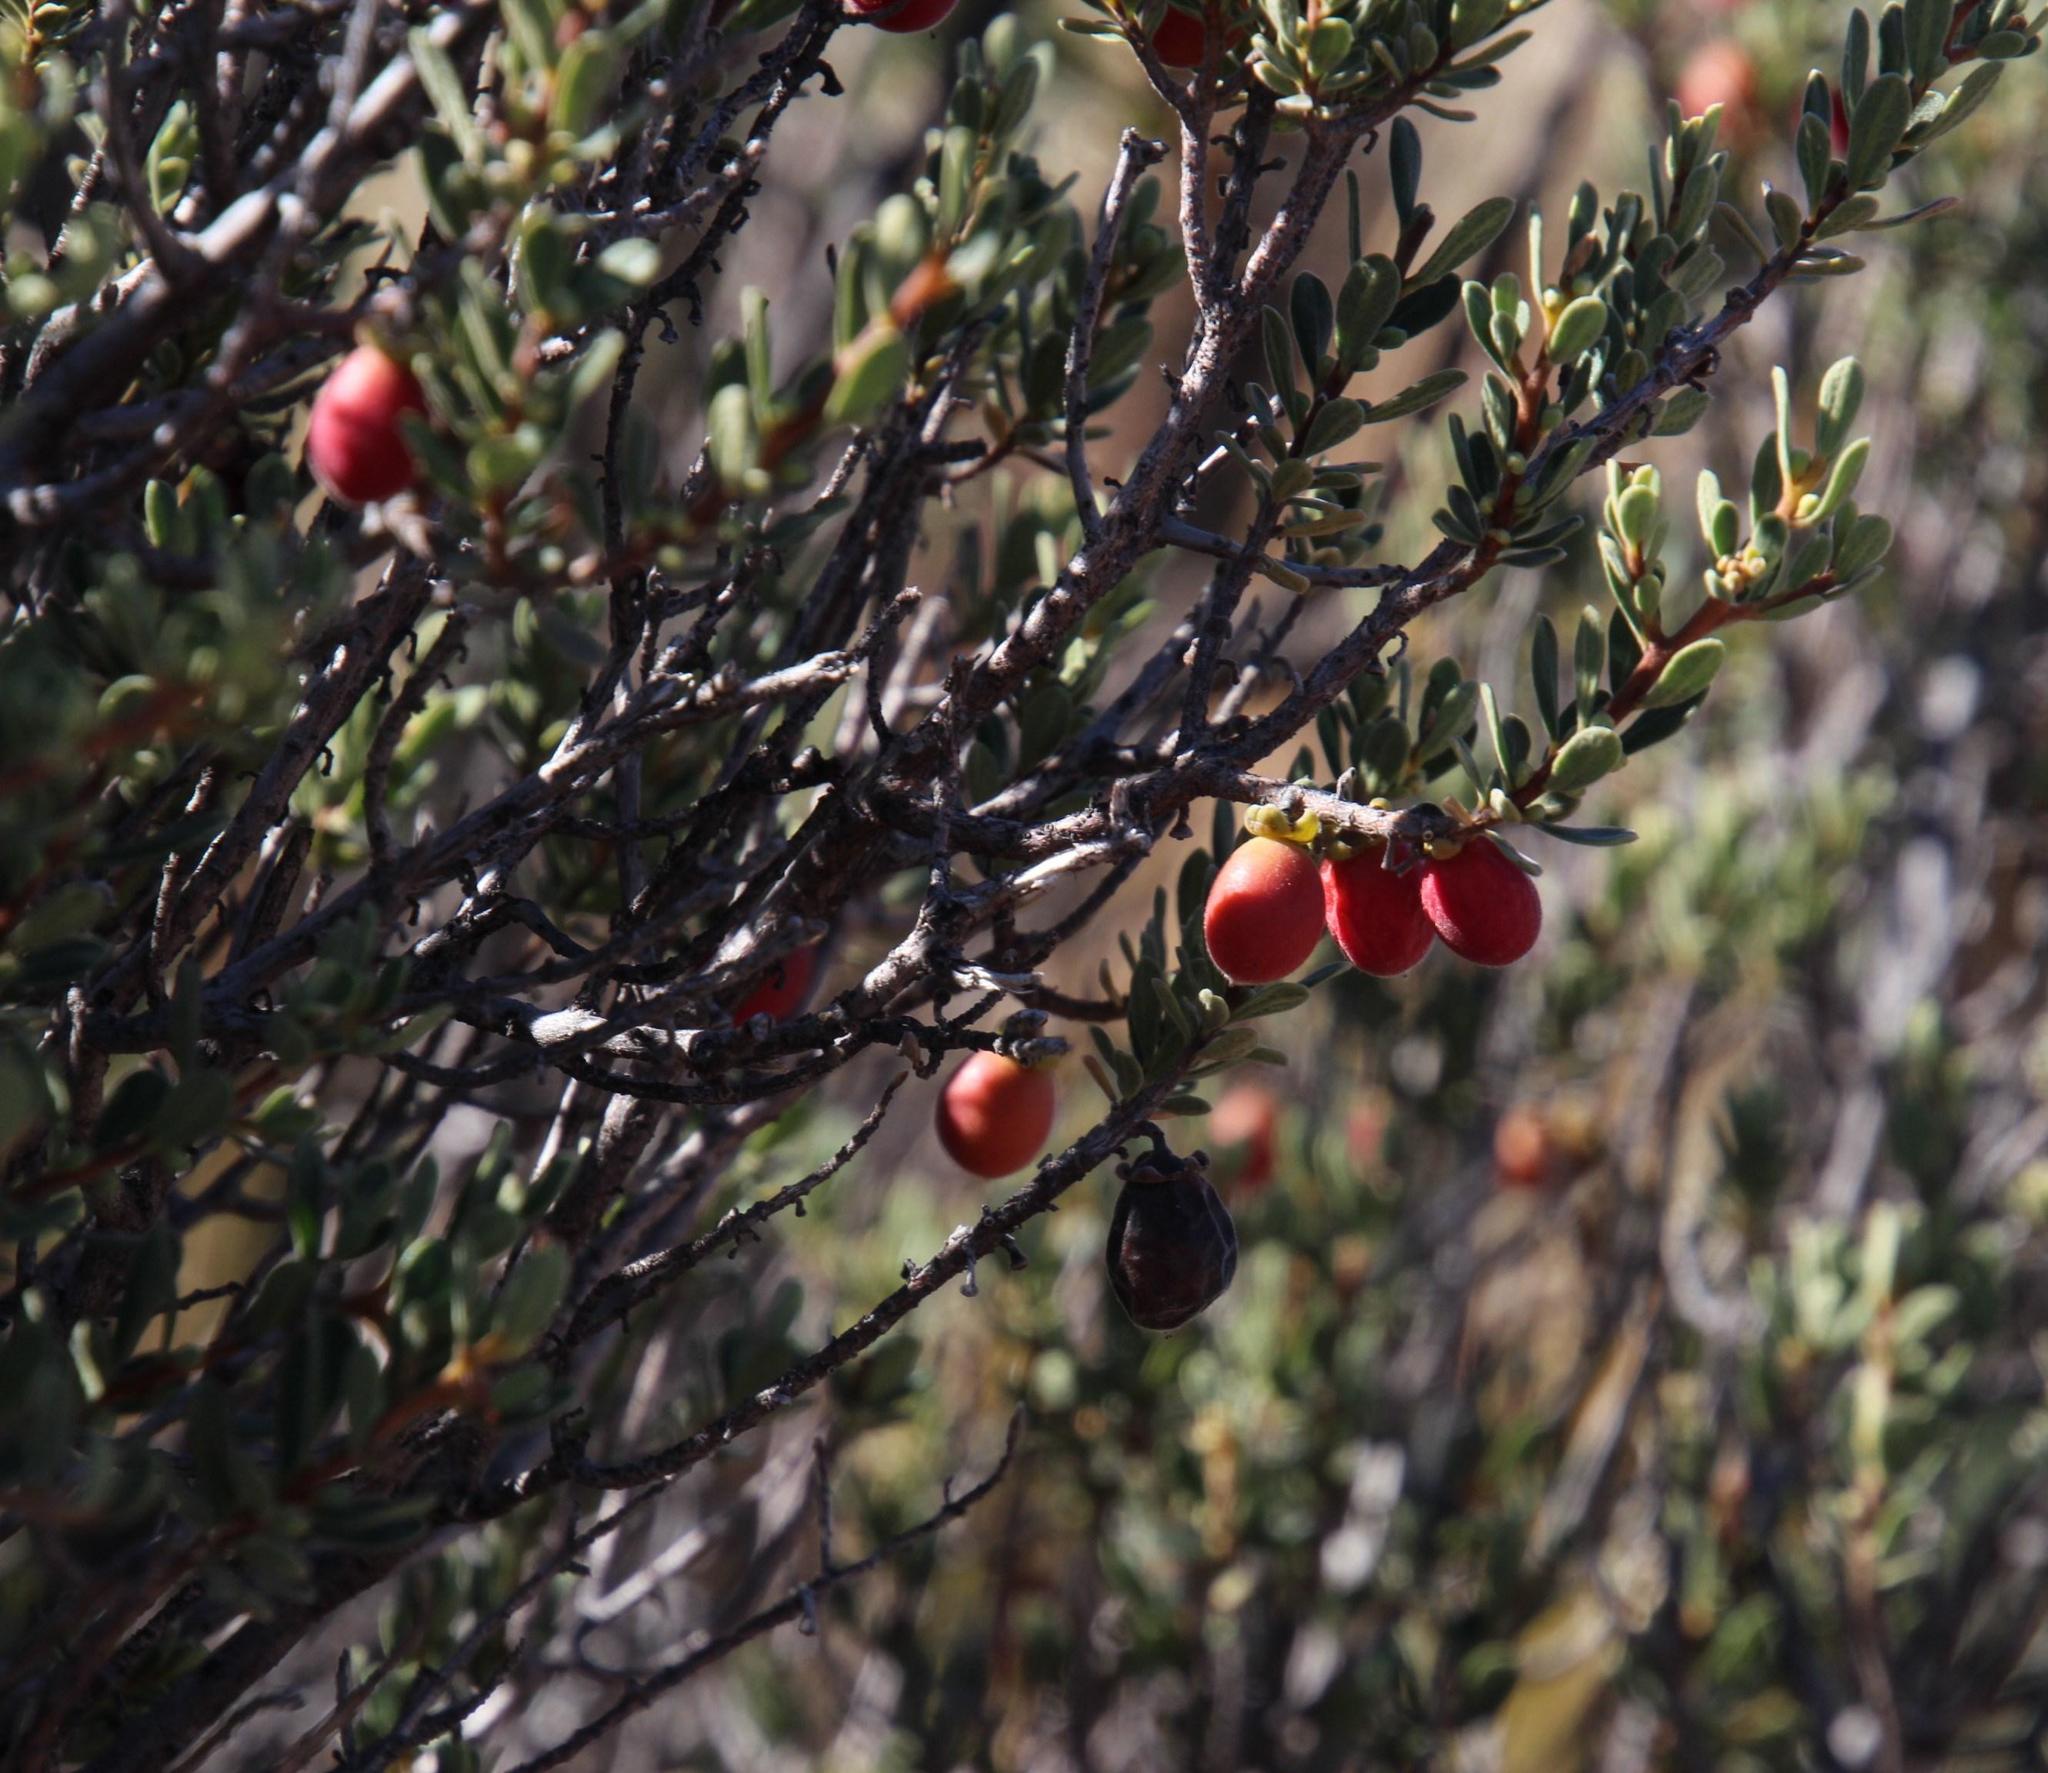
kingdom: Plantae
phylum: Tracheophyta
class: Magnoliopsida
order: Ericales
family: Ebenaceae
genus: Diospyros
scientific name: Diospyros pubescens
